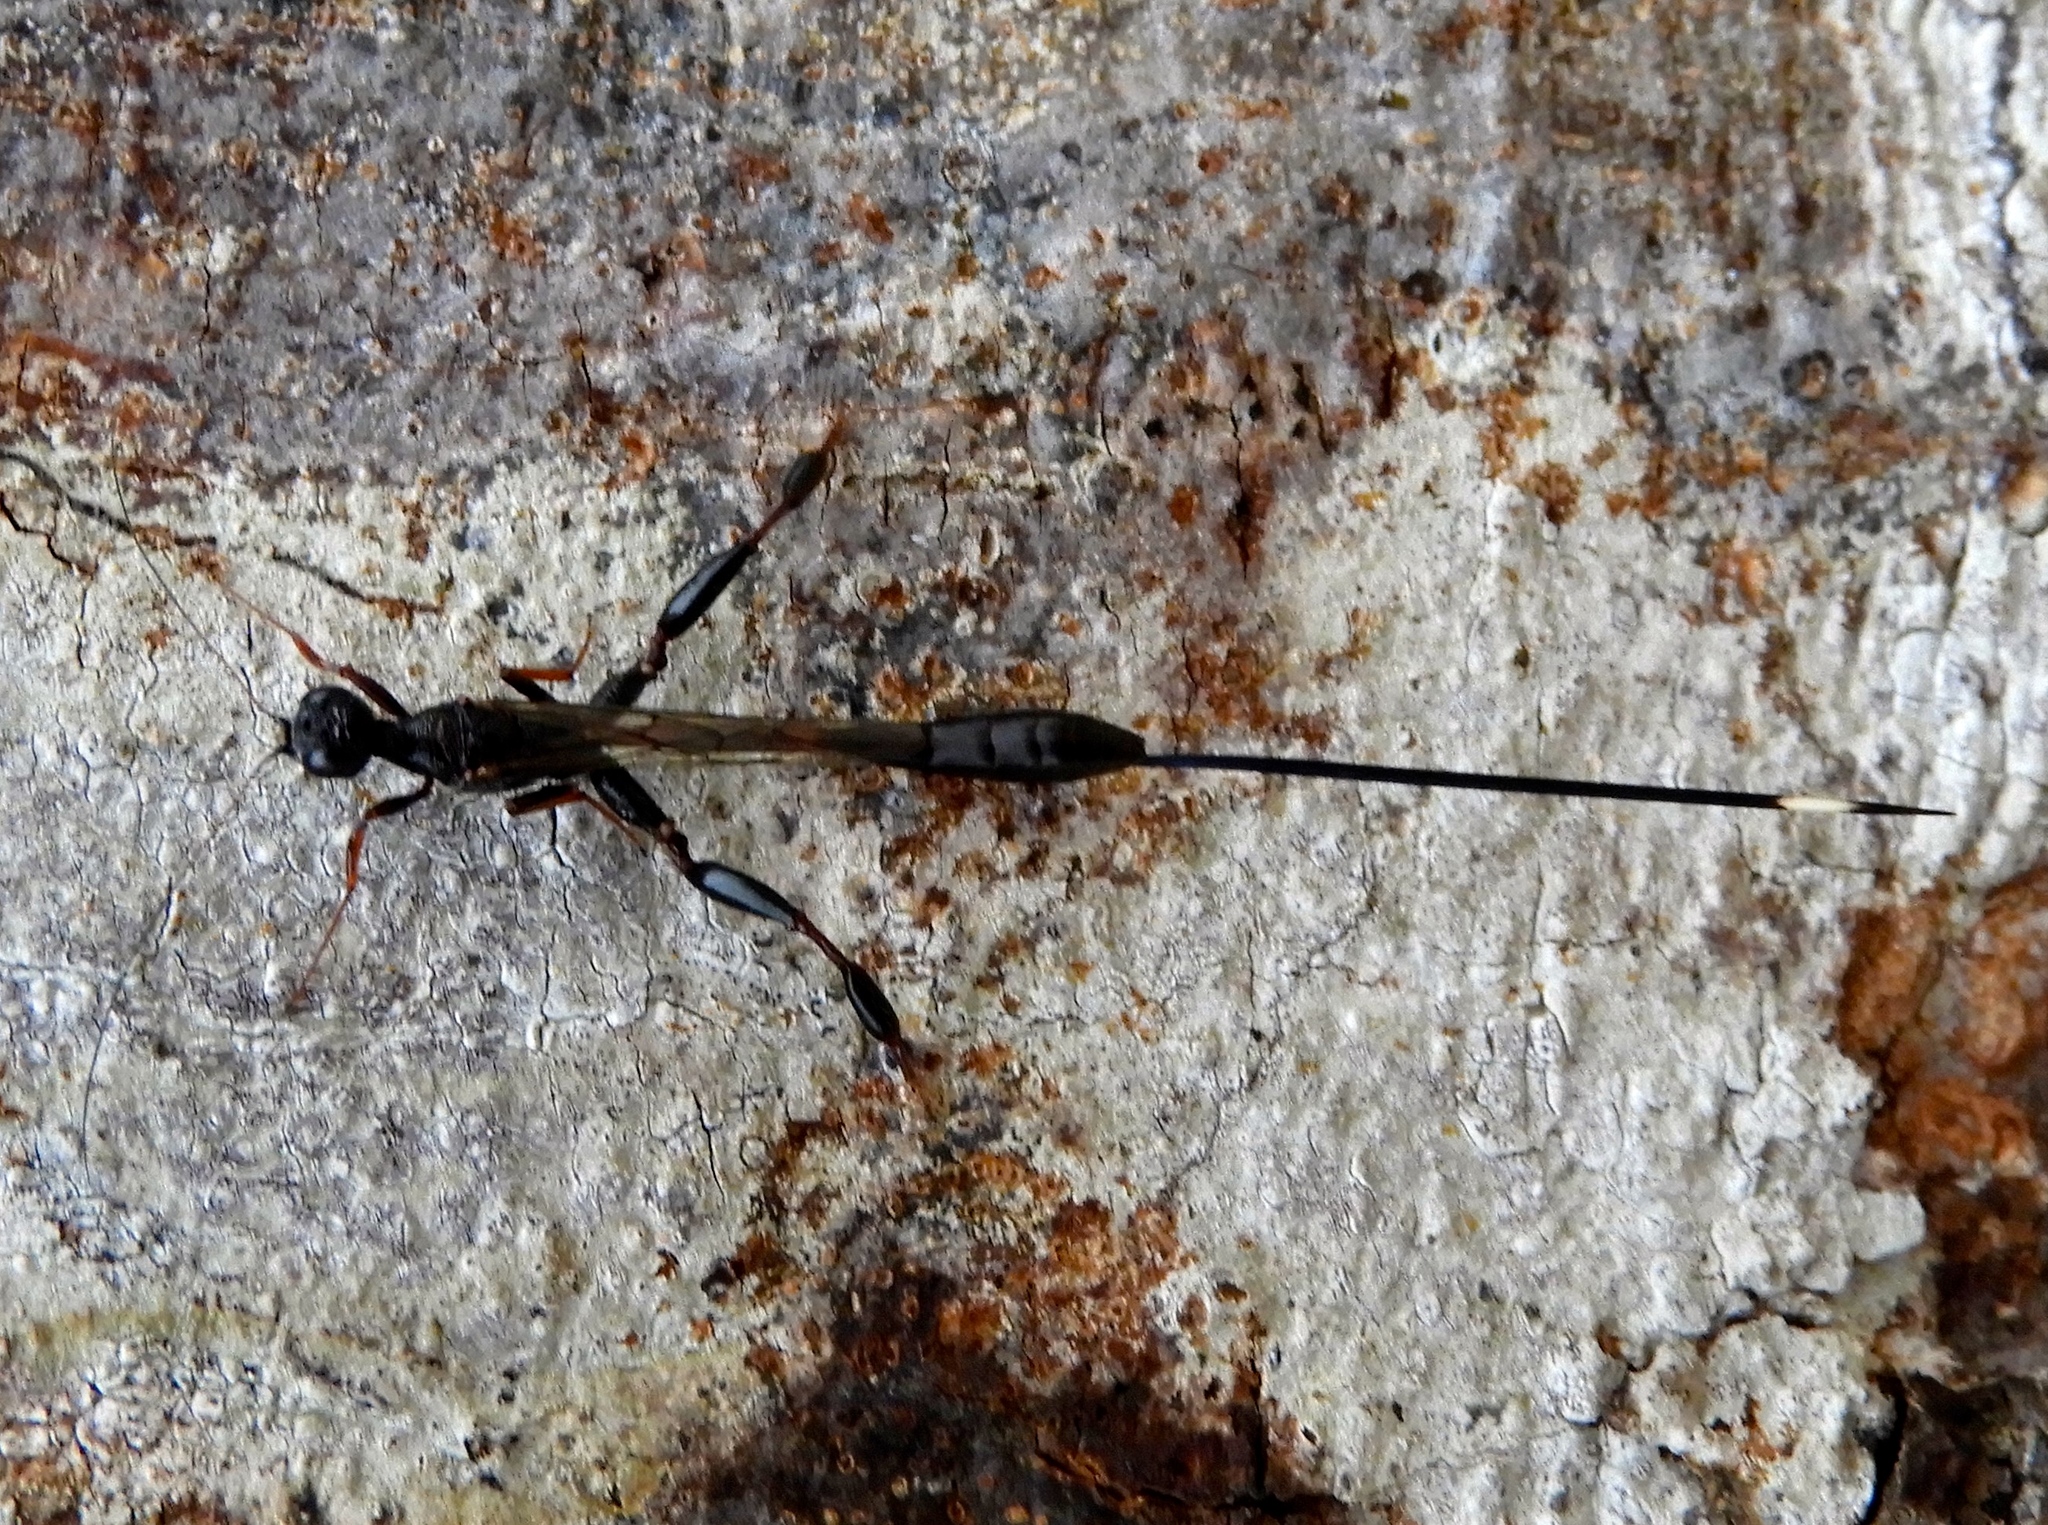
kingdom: Animalia
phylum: Arthropoda
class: Insecta
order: Hymenoptera
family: Stephanidae
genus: Megischus
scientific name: Megischus
